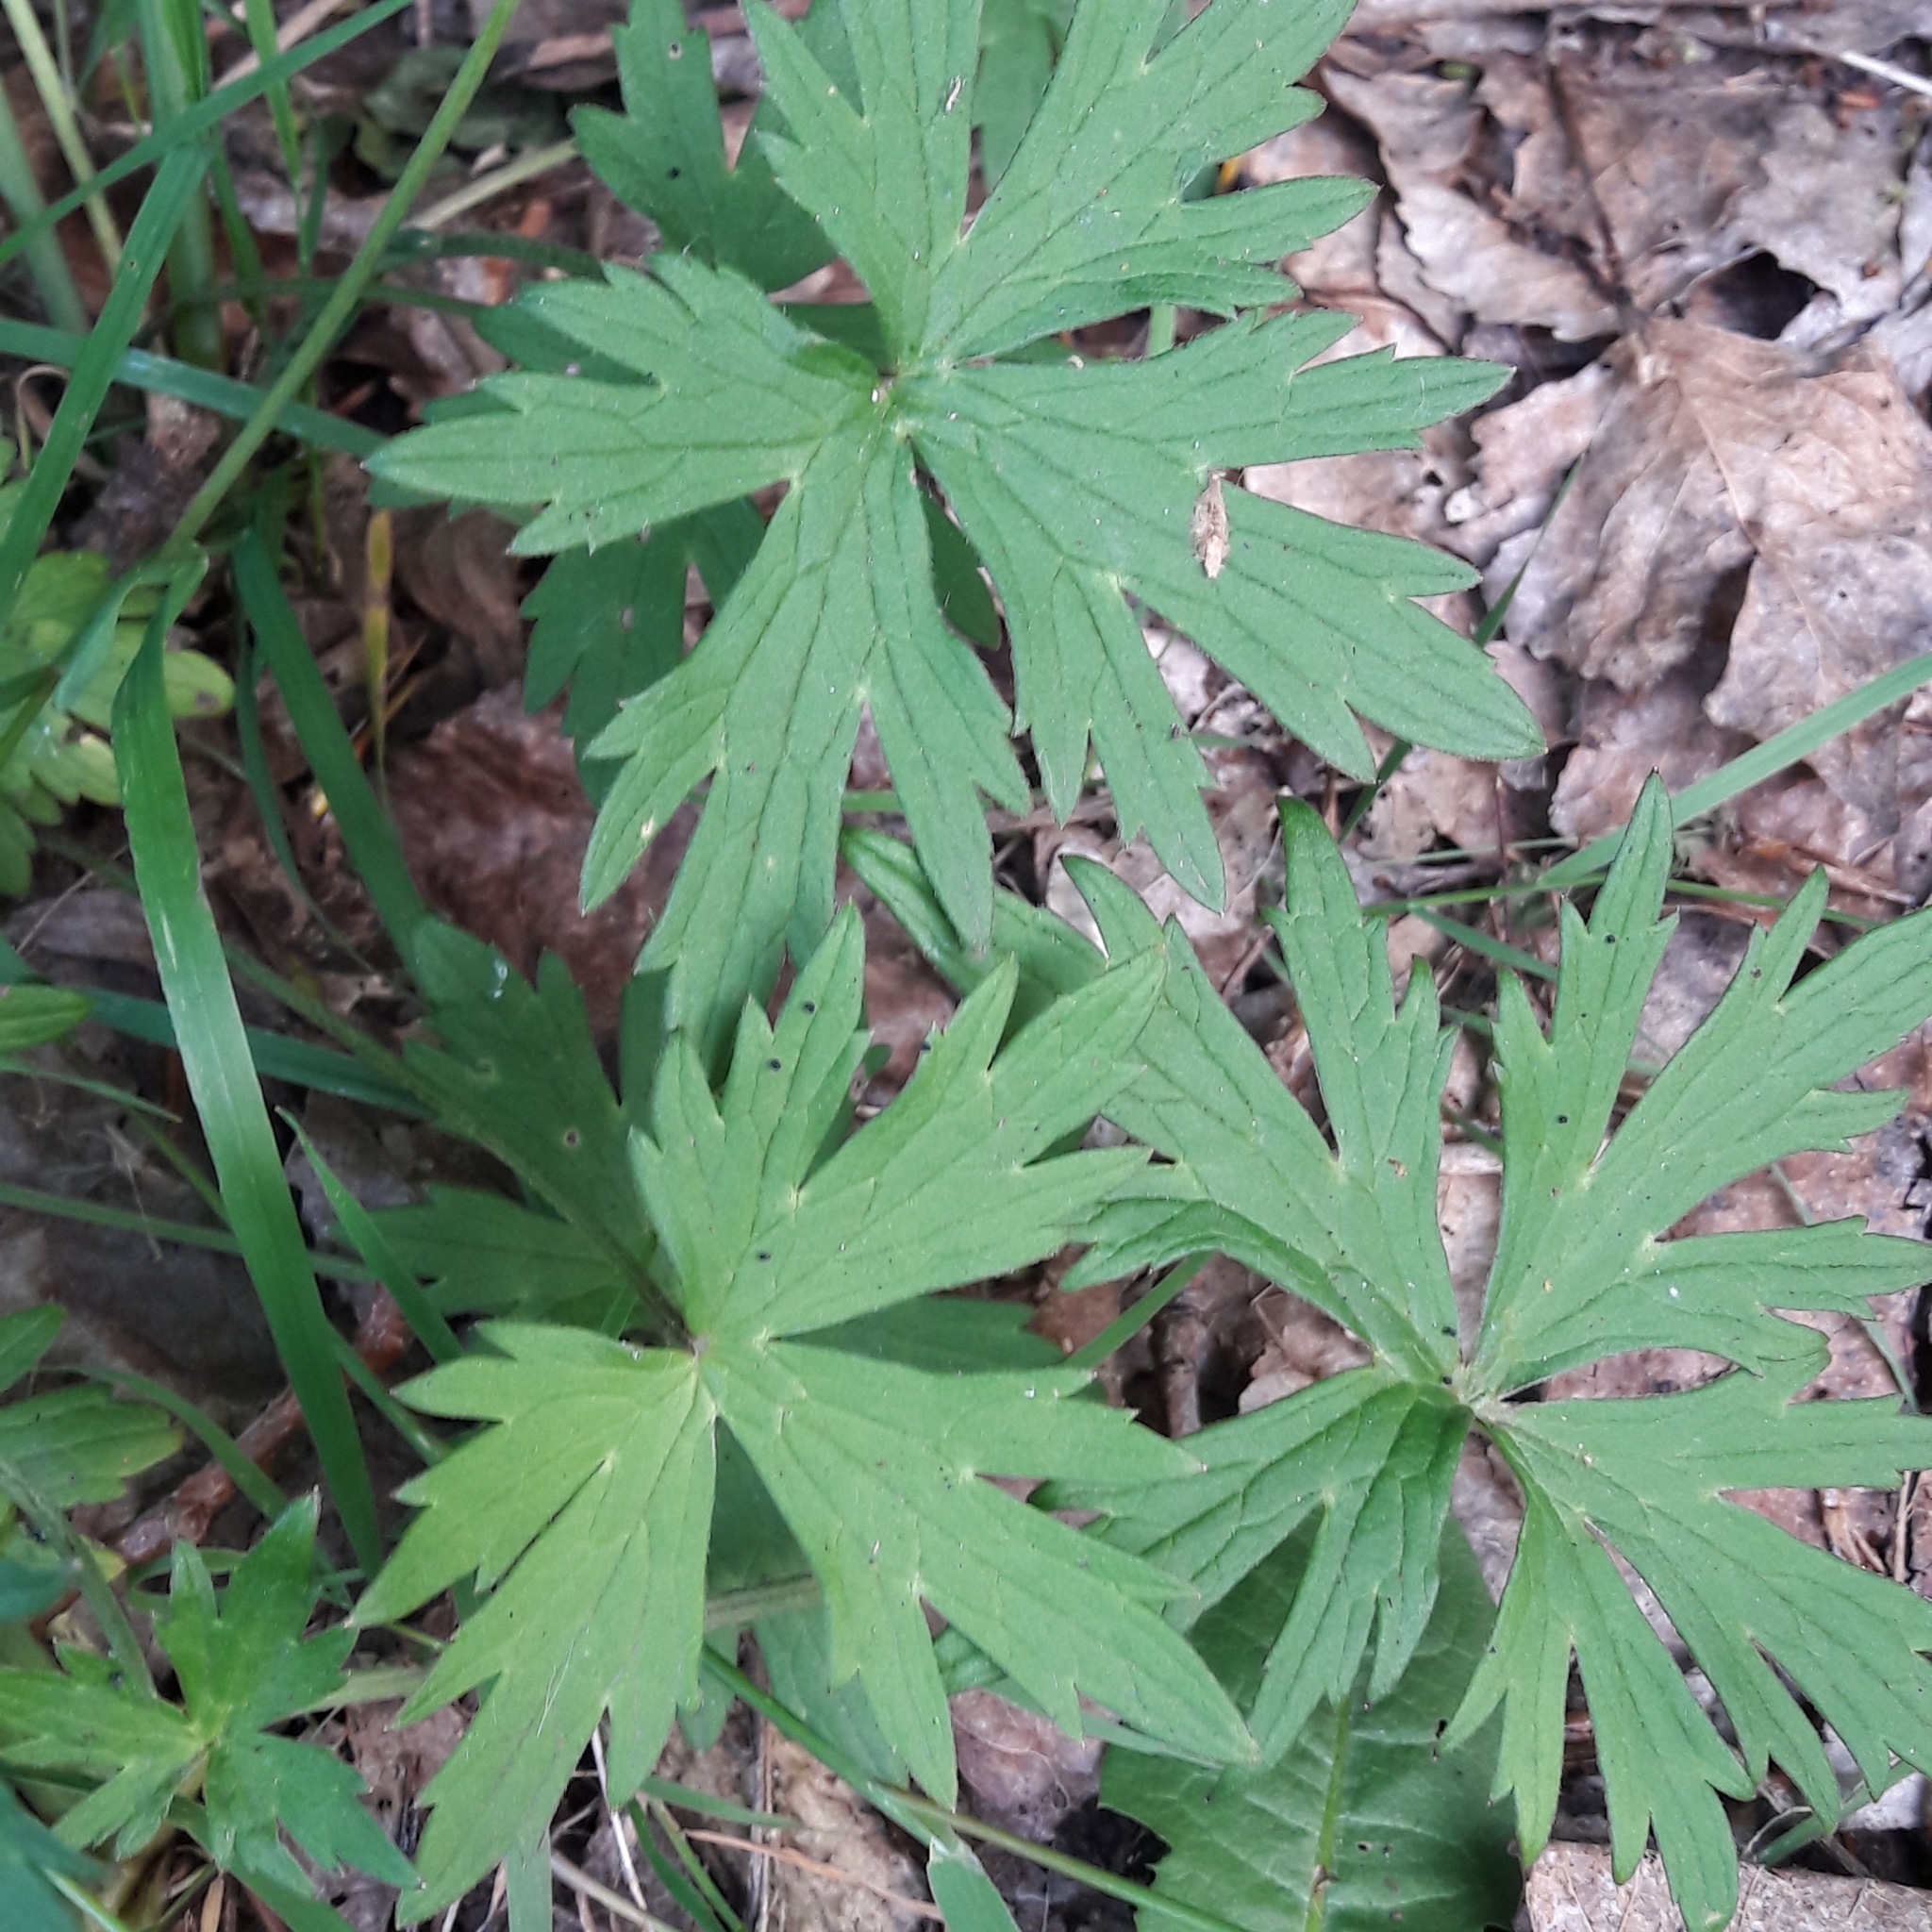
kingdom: Plantae
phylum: Tracheophyta
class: Magnoliopsida
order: Ranunculales
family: Ranunculaceae
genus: Ranunculus
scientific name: Ranunculus acris
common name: Meadow buttercup
